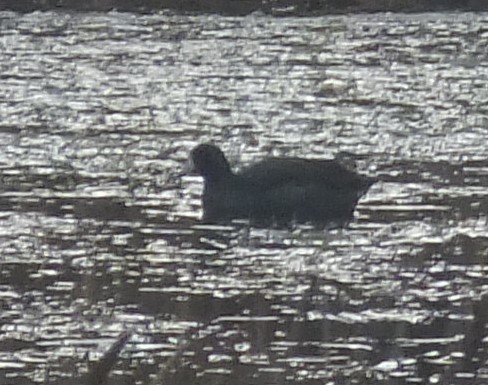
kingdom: Animalia
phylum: Chordata
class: Aves
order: Gruiformes
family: Rallidae
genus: Fulica
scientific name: Fulica americana
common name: American coot
